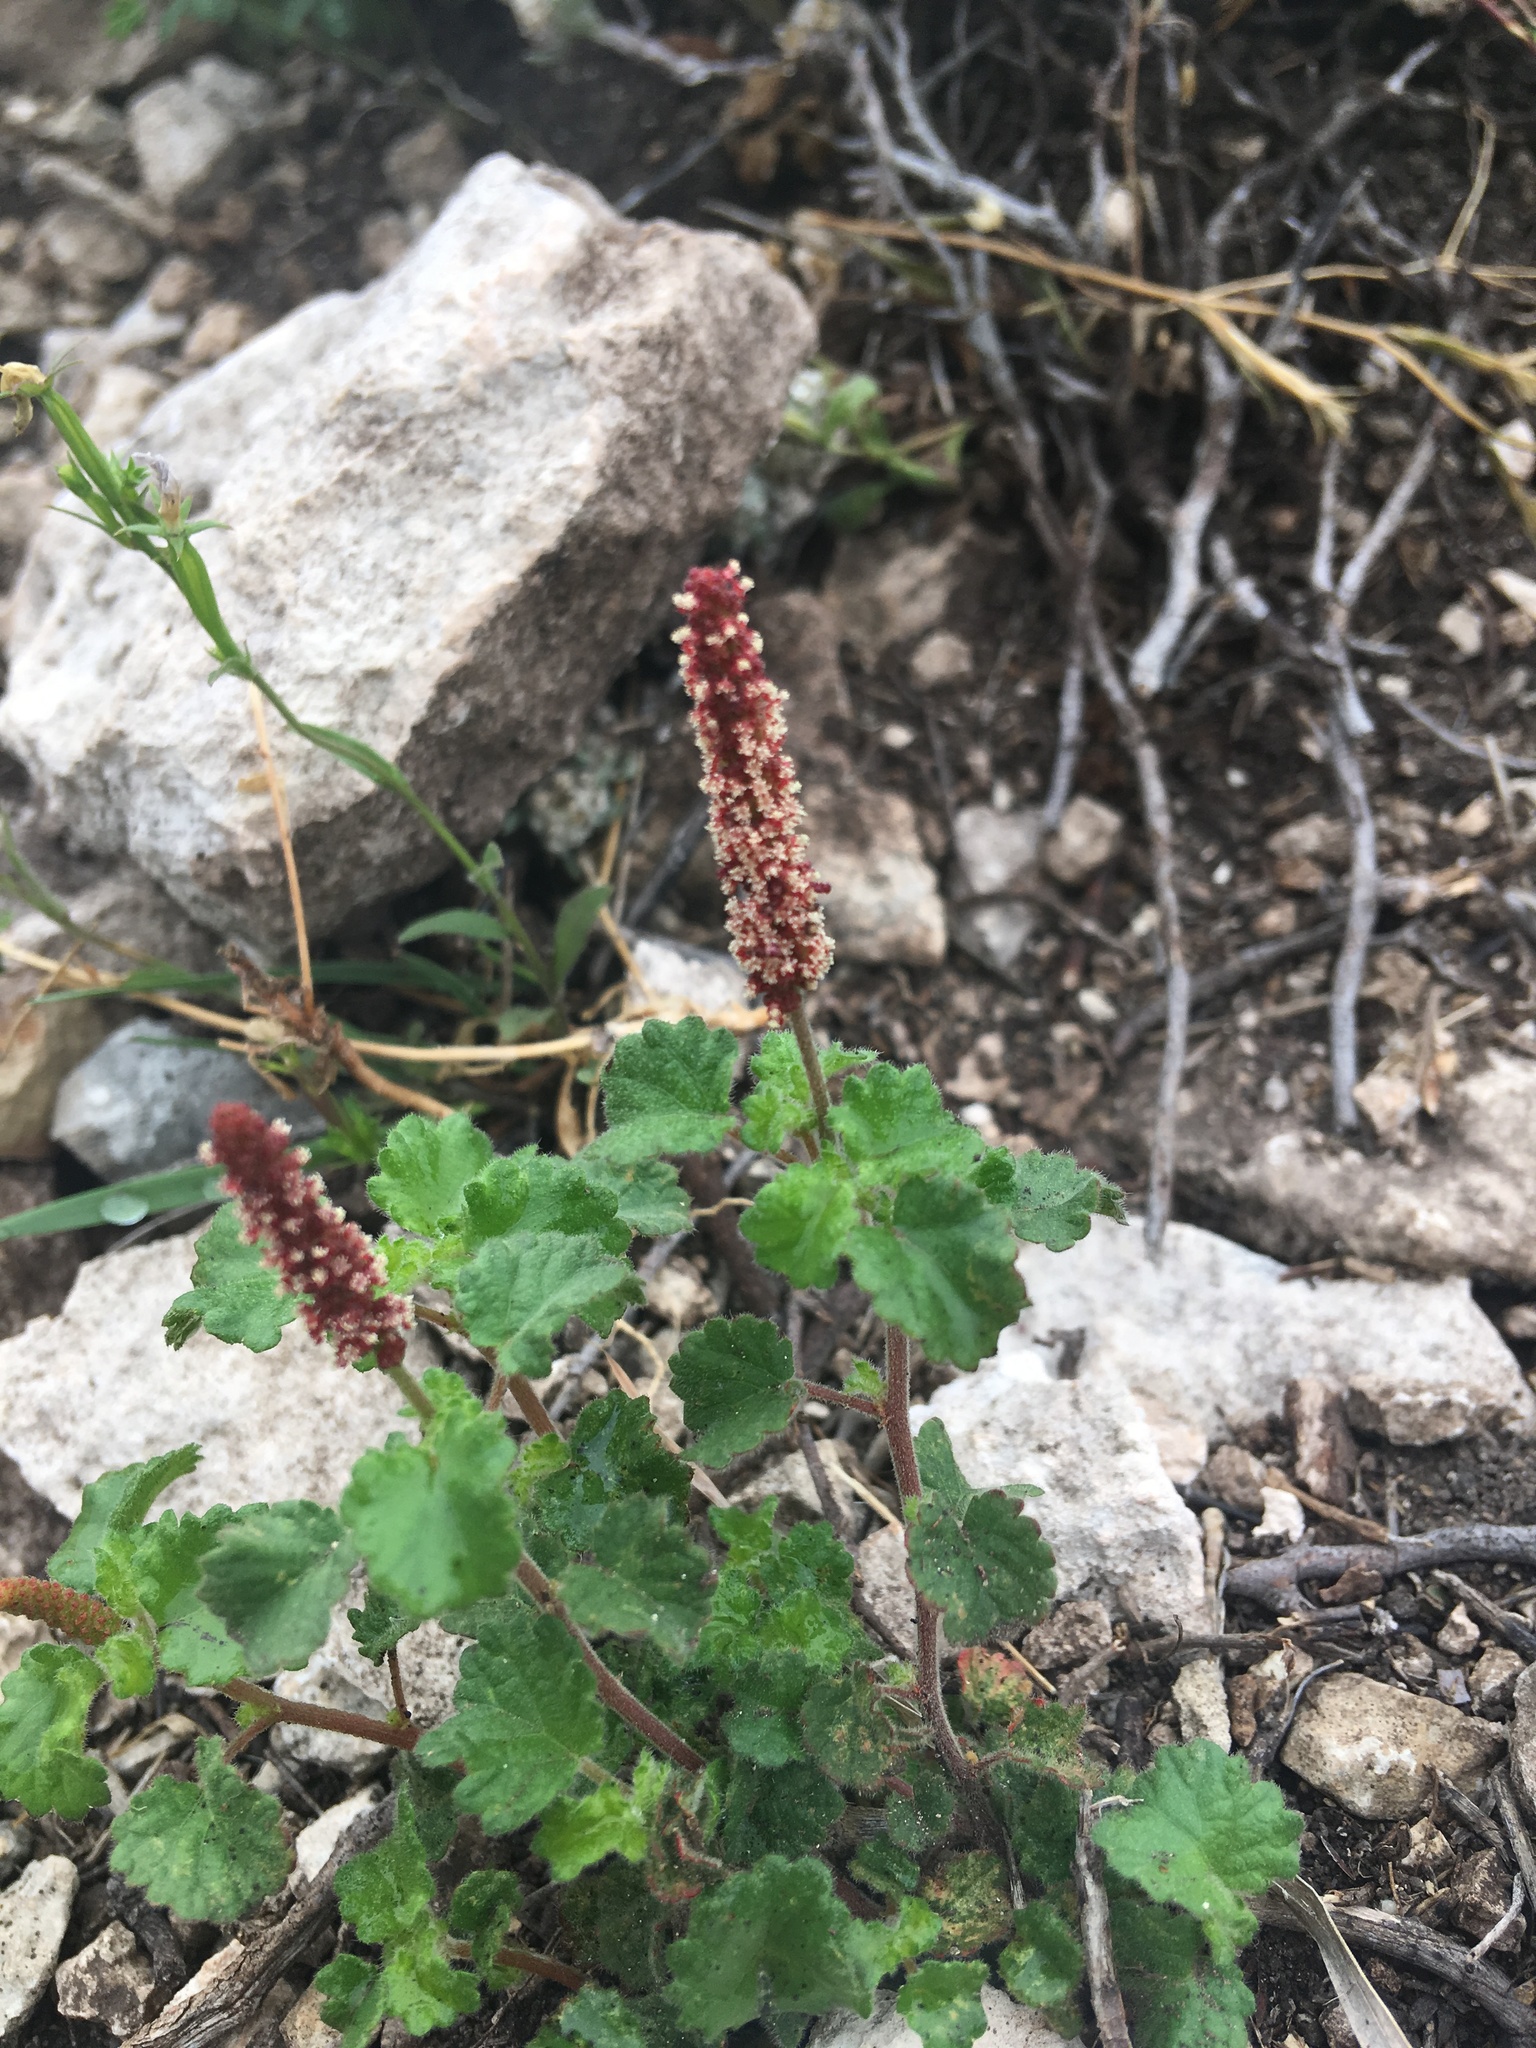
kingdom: Plantae
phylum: Tracheophyta
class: Magnoliopsida
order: Malpighiales
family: Euphorbiaceae
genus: Acalypha
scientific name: Acalypha monostachya
